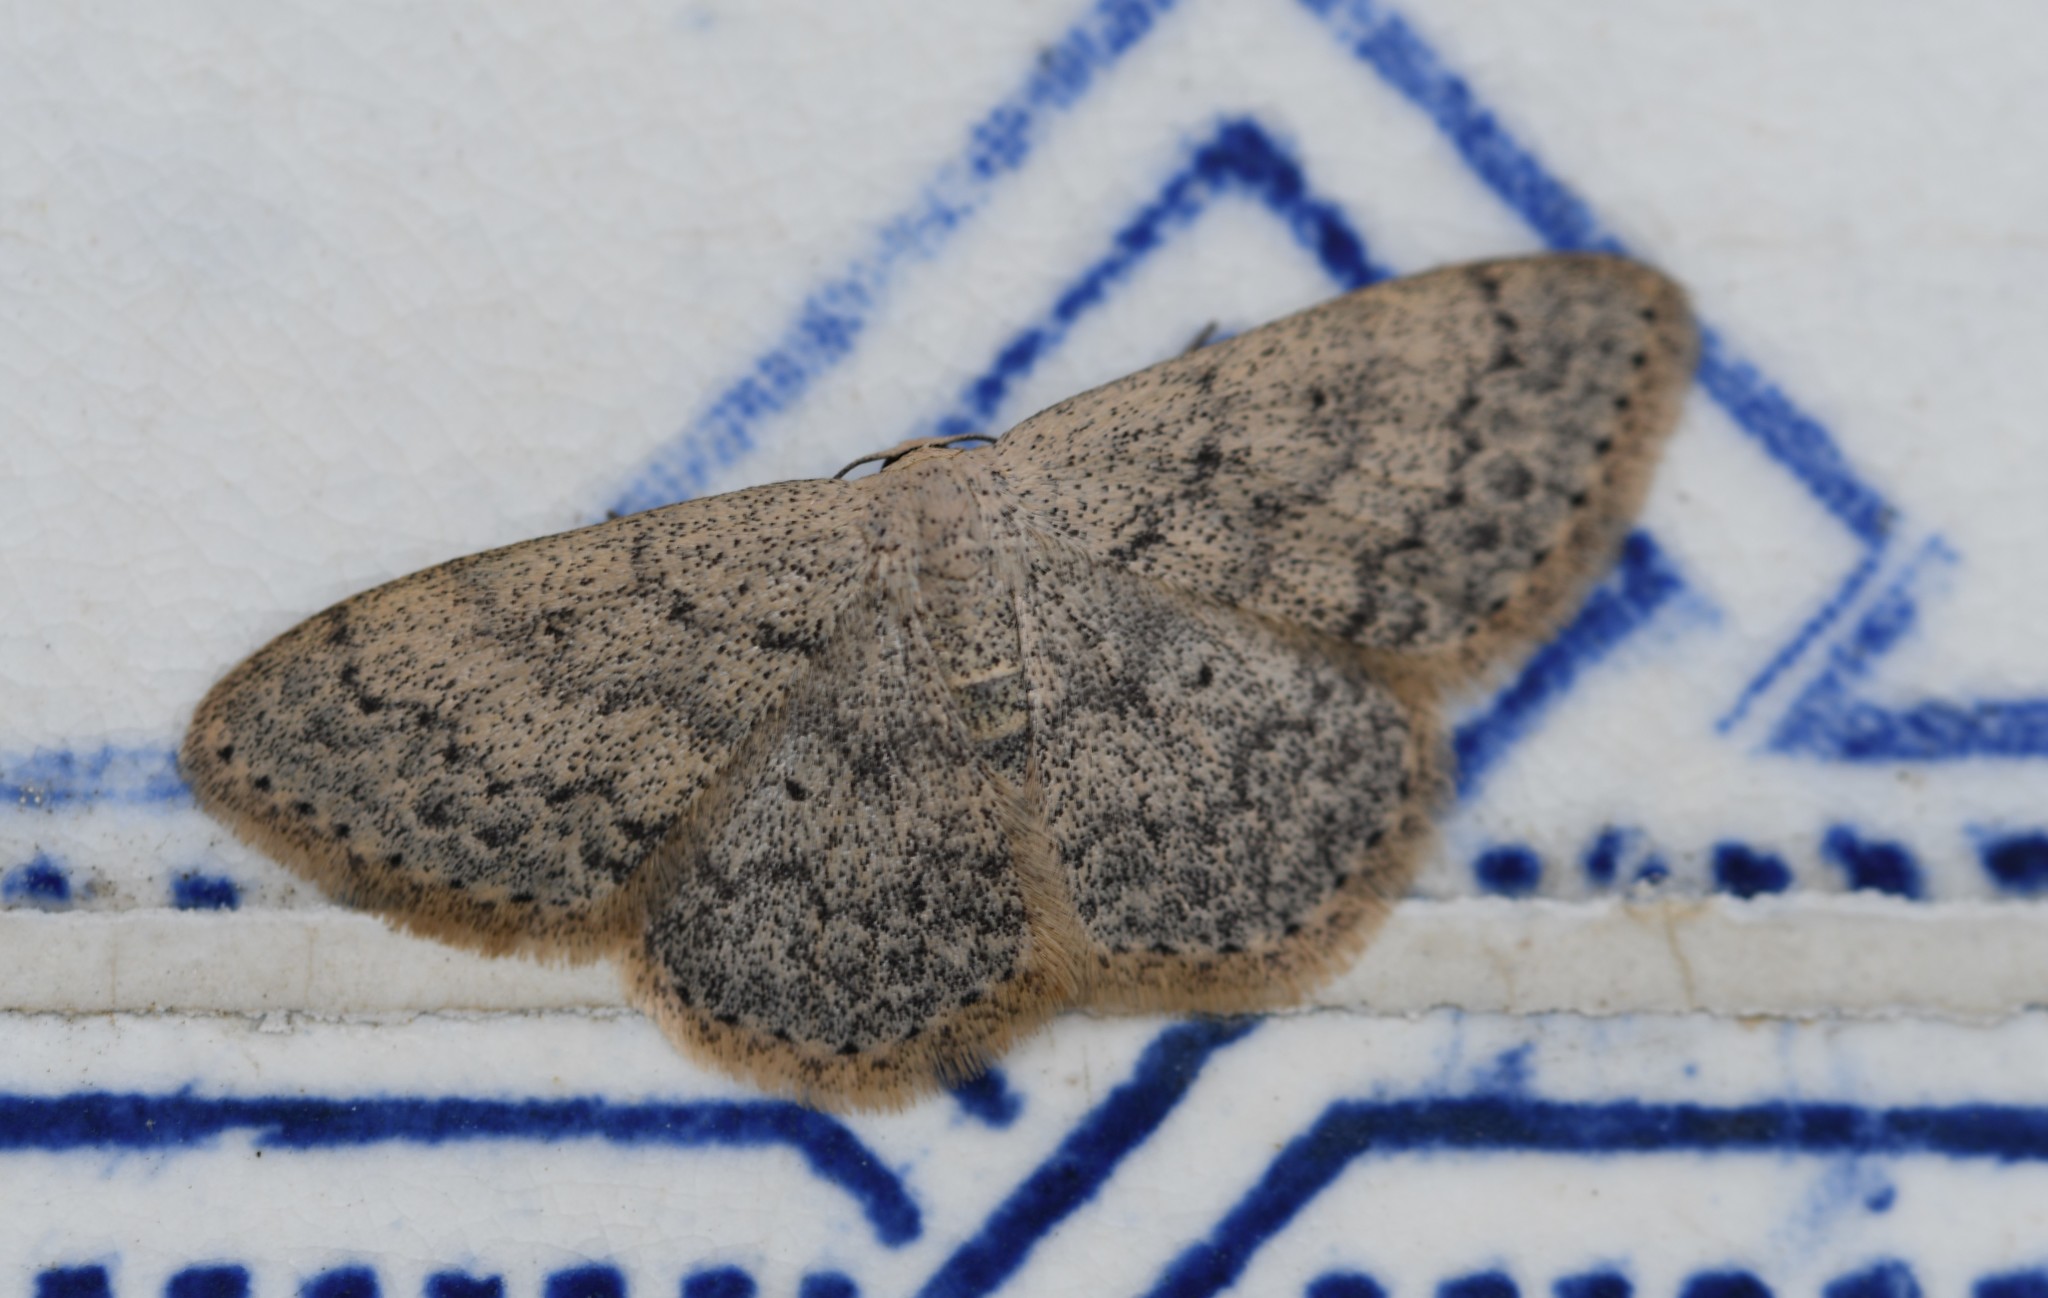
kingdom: Animalia
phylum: Arthropoda
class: Insecta
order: Lepidoptera
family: Geometridae
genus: Scopula
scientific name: Scopula marginepunctata
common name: Mullein wave
